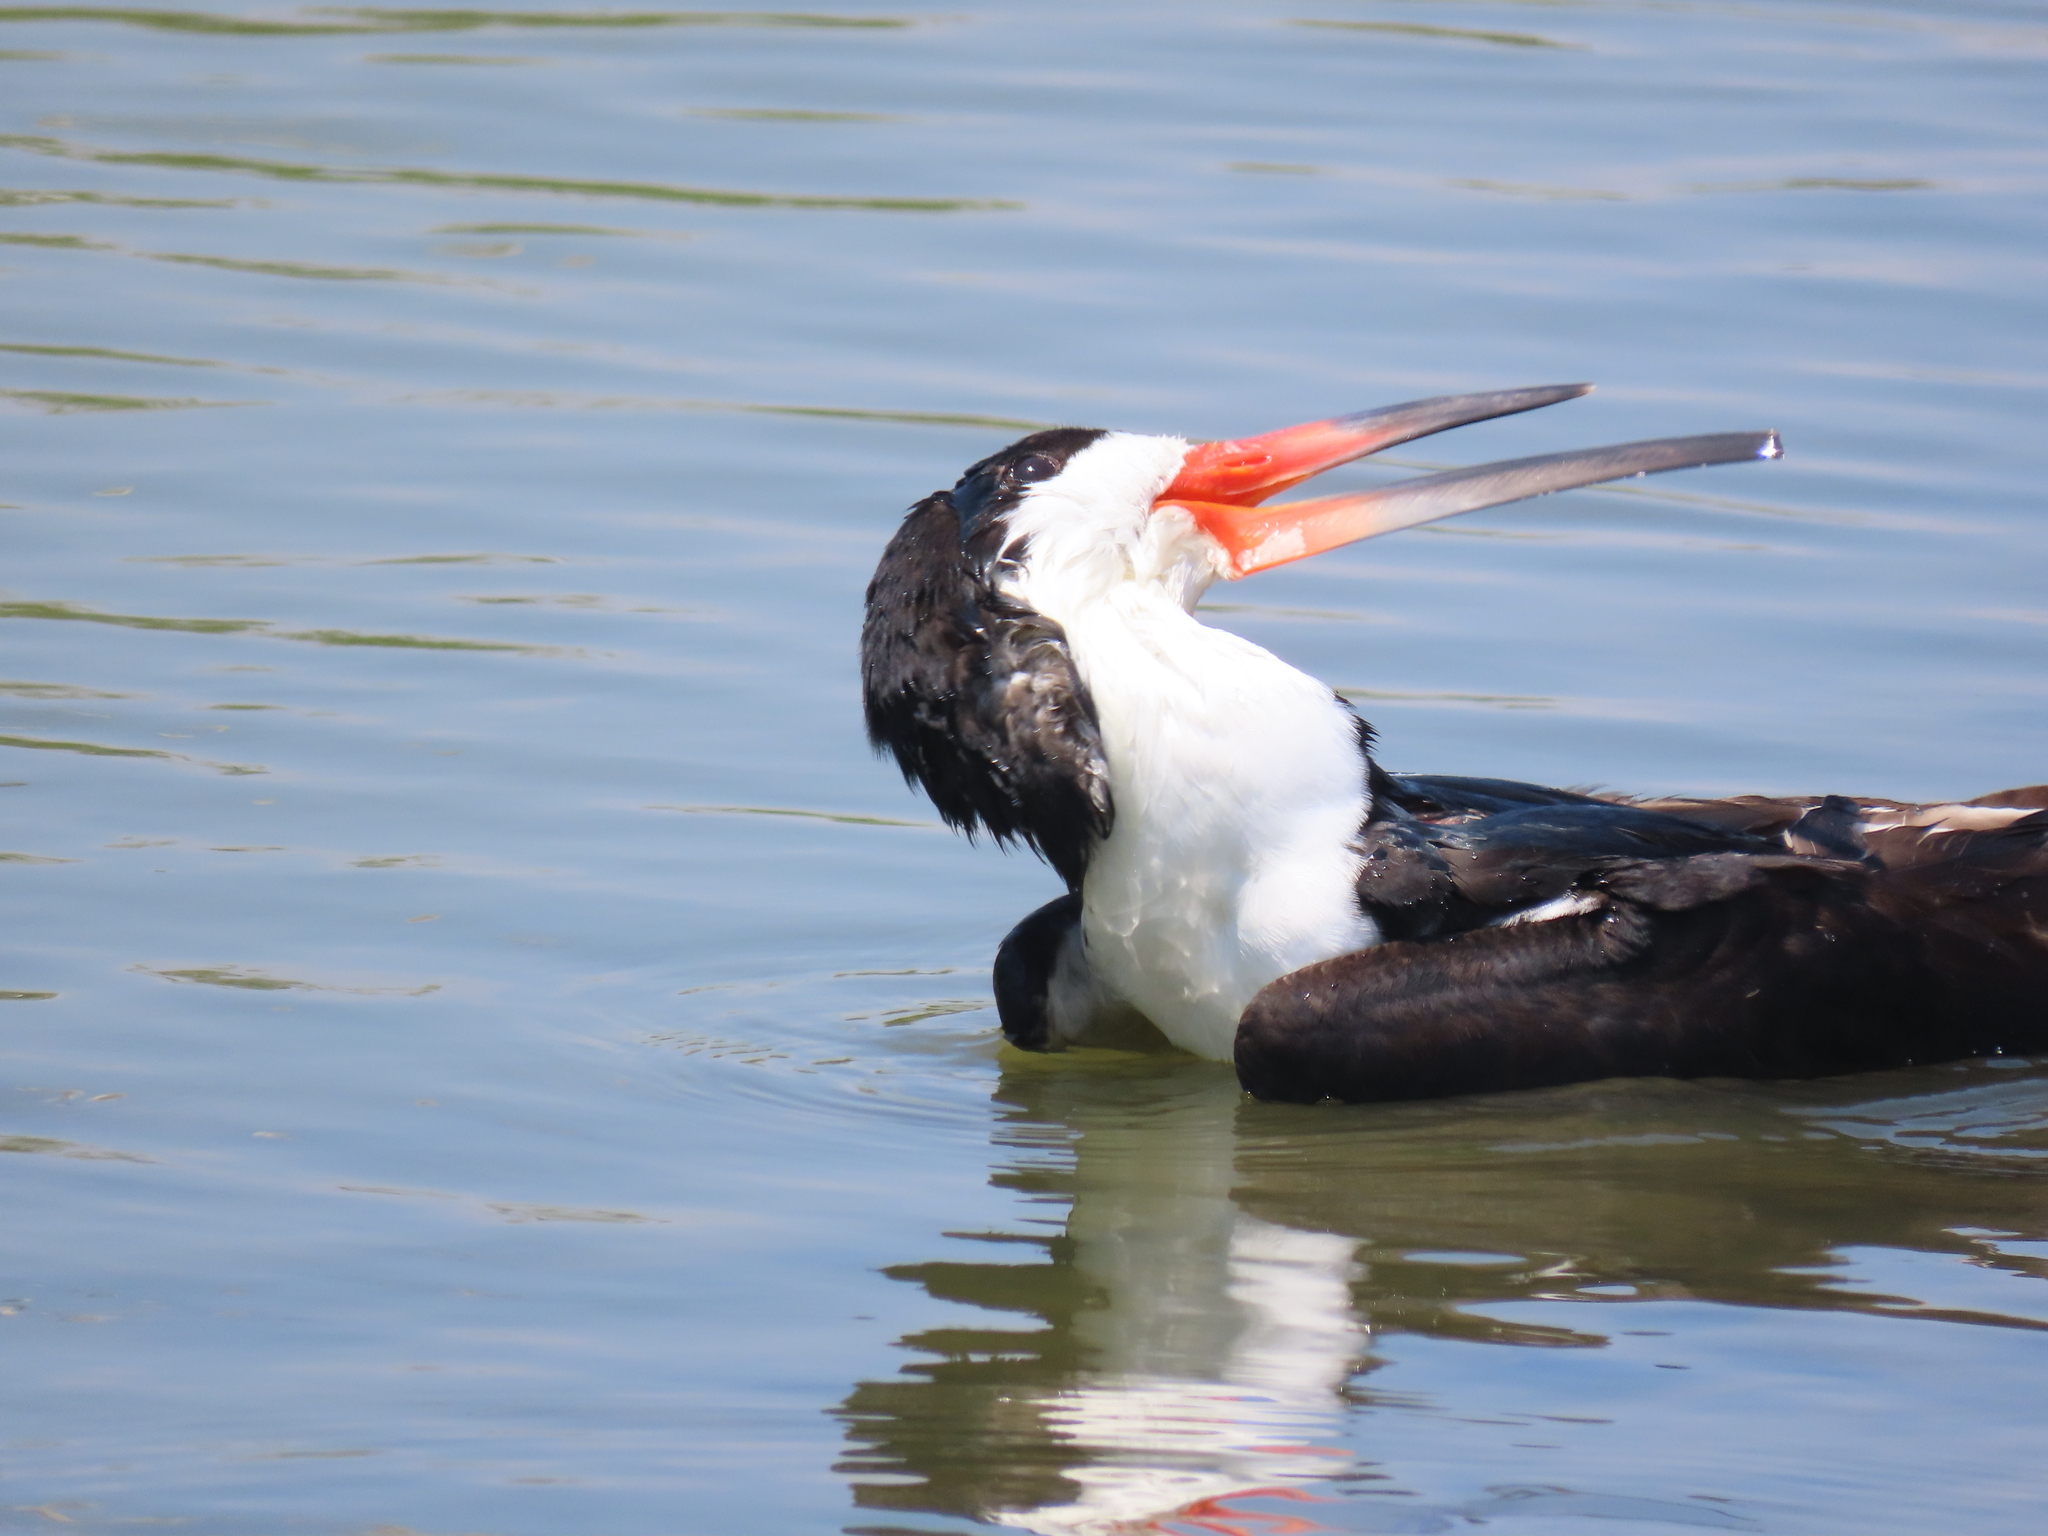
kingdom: Animalia
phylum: Chordata
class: Aves
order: Charadriiformes
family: Laridae
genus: Rynchops
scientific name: Rynchops niger
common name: Black skimmer
